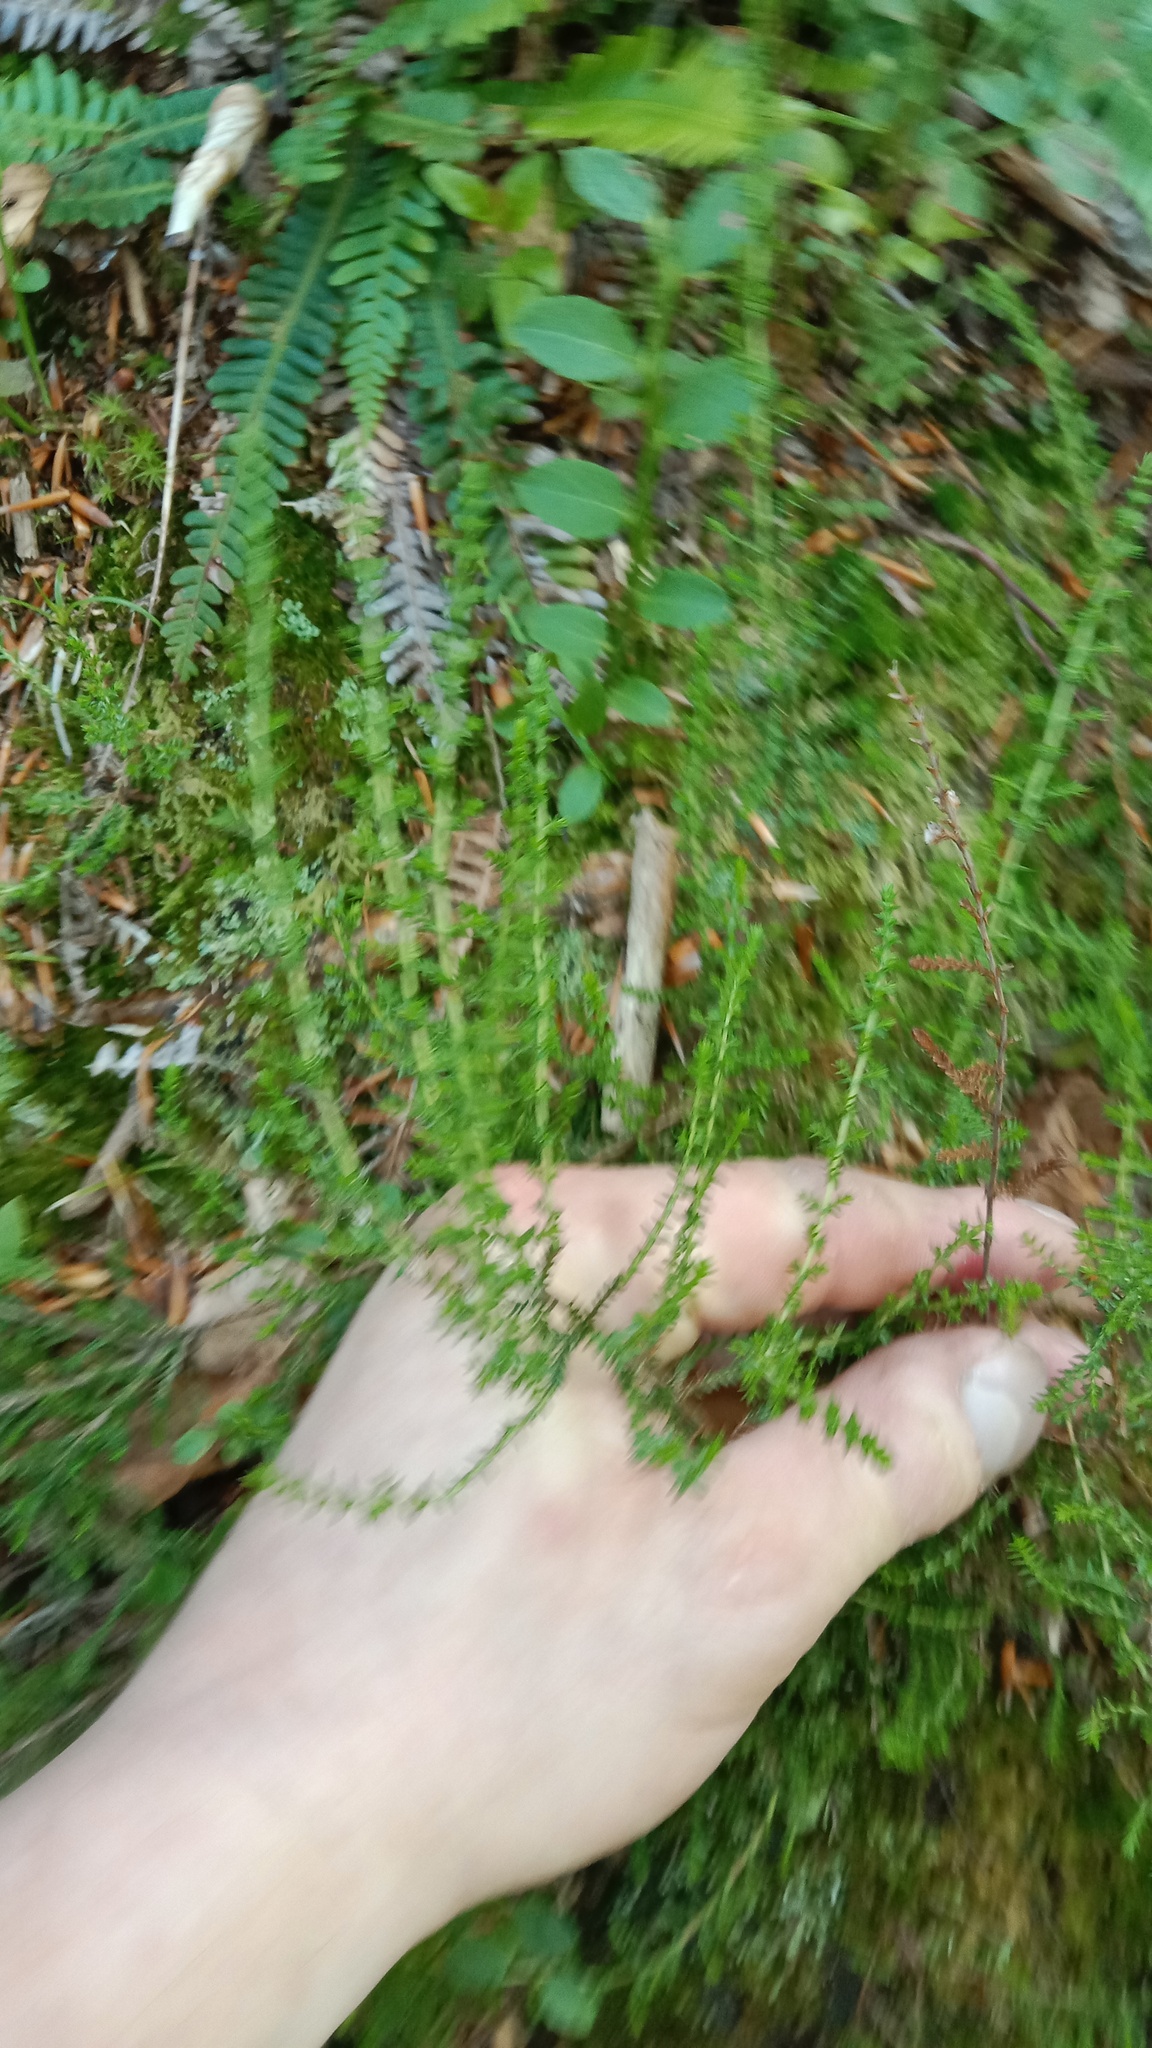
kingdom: Plantae
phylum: Tracheophyta
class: Magnoliopsida
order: Ericales
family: Ericaceae
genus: Calluna
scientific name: Calluna vulgaris
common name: Heather
